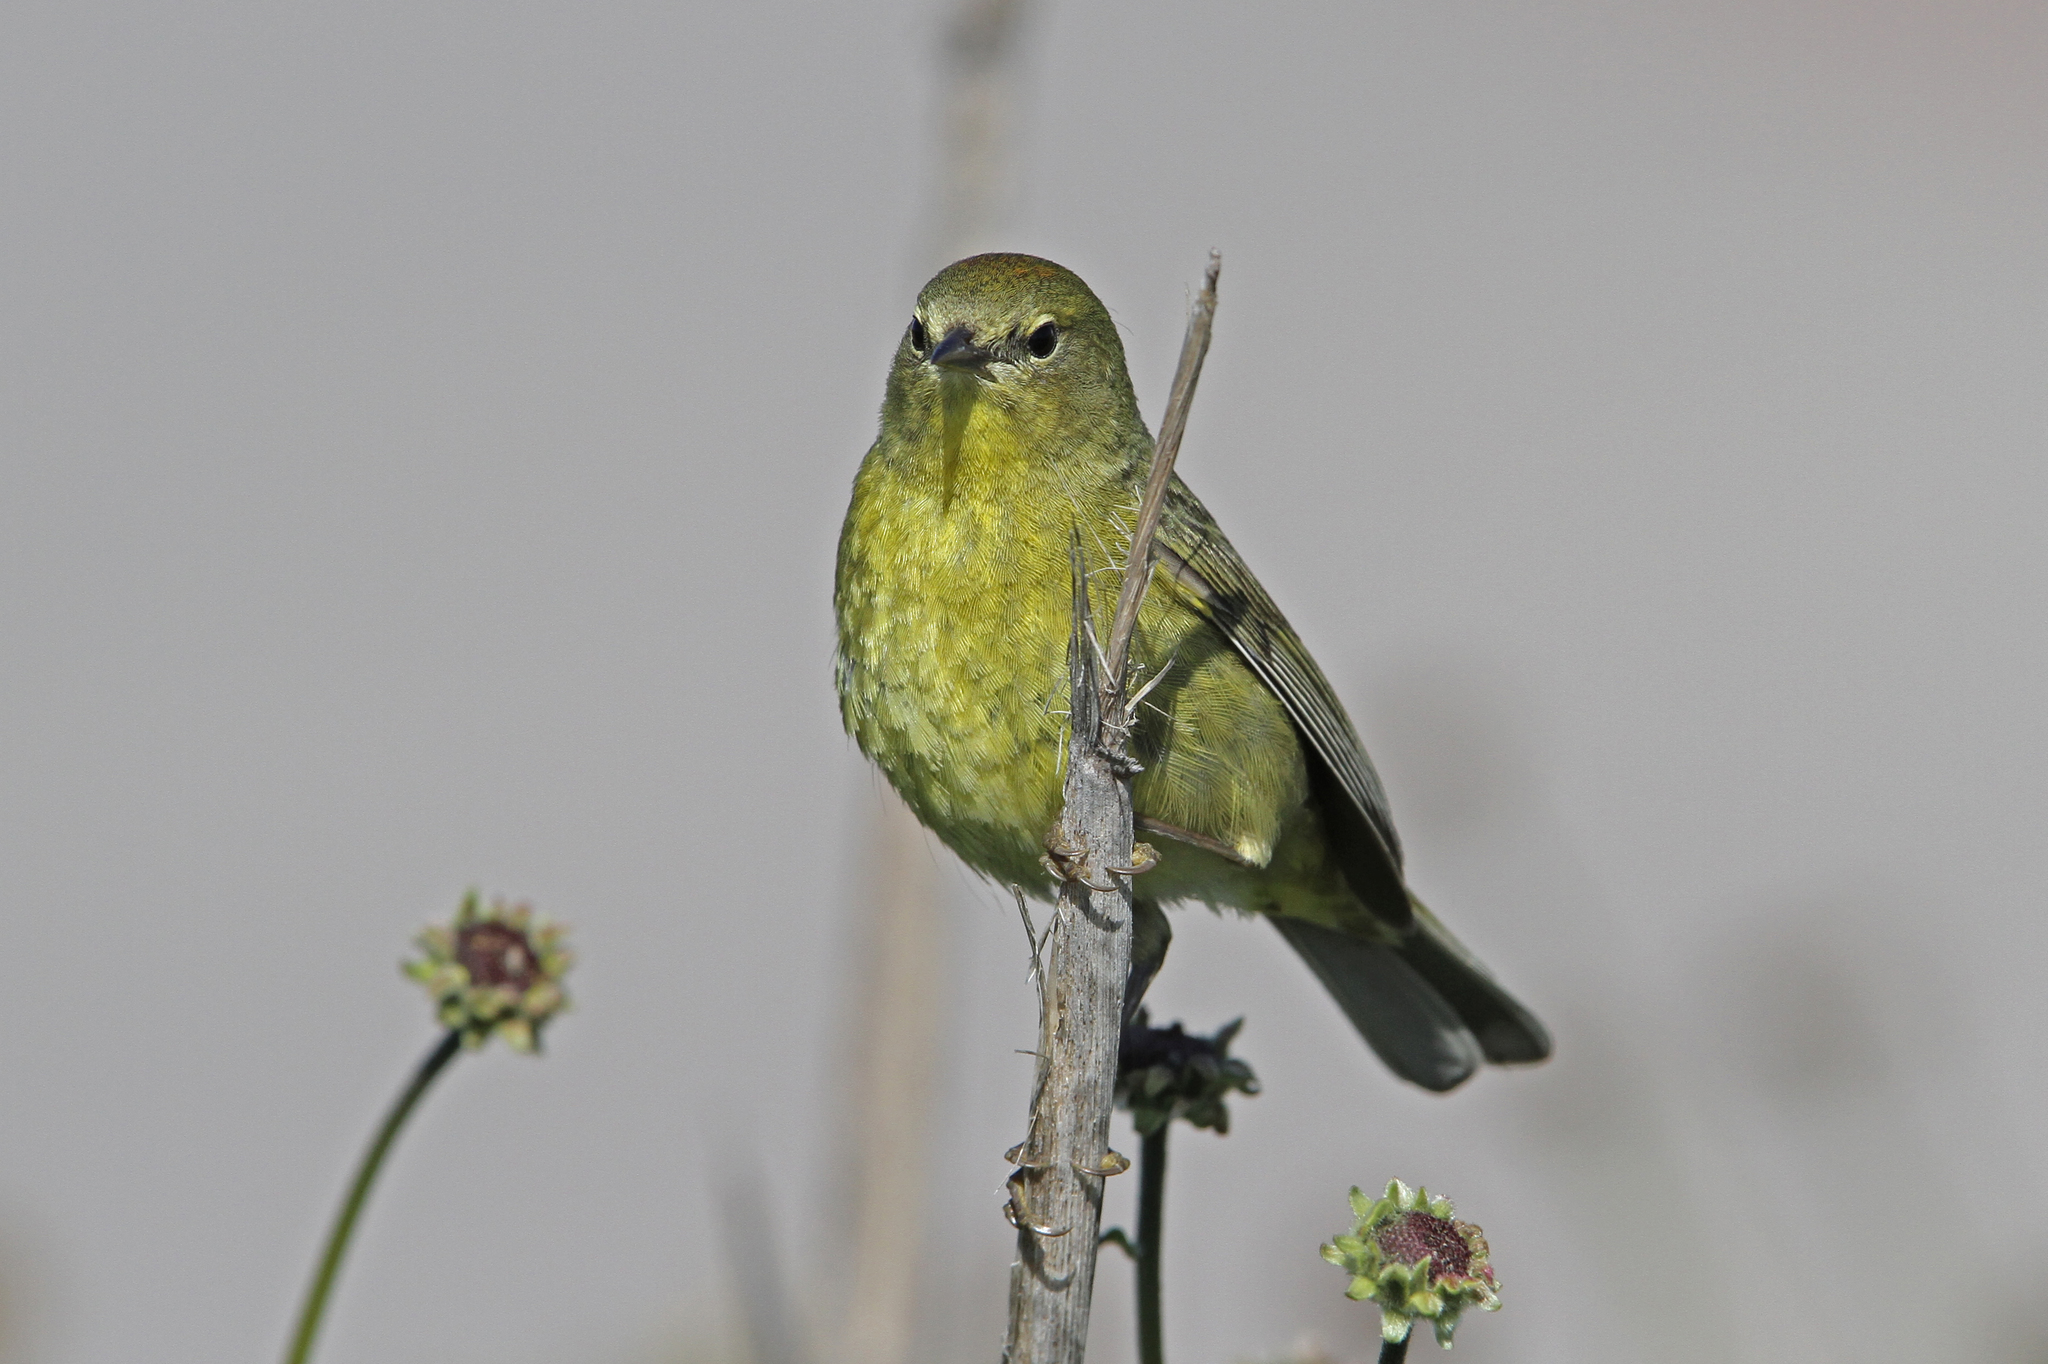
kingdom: Animalia
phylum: Chordata
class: Aves
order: Passeriformes
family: Parulidae
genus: Leiothlypis
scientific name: Leiothlypis celata
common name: Orange-crowned warbler
